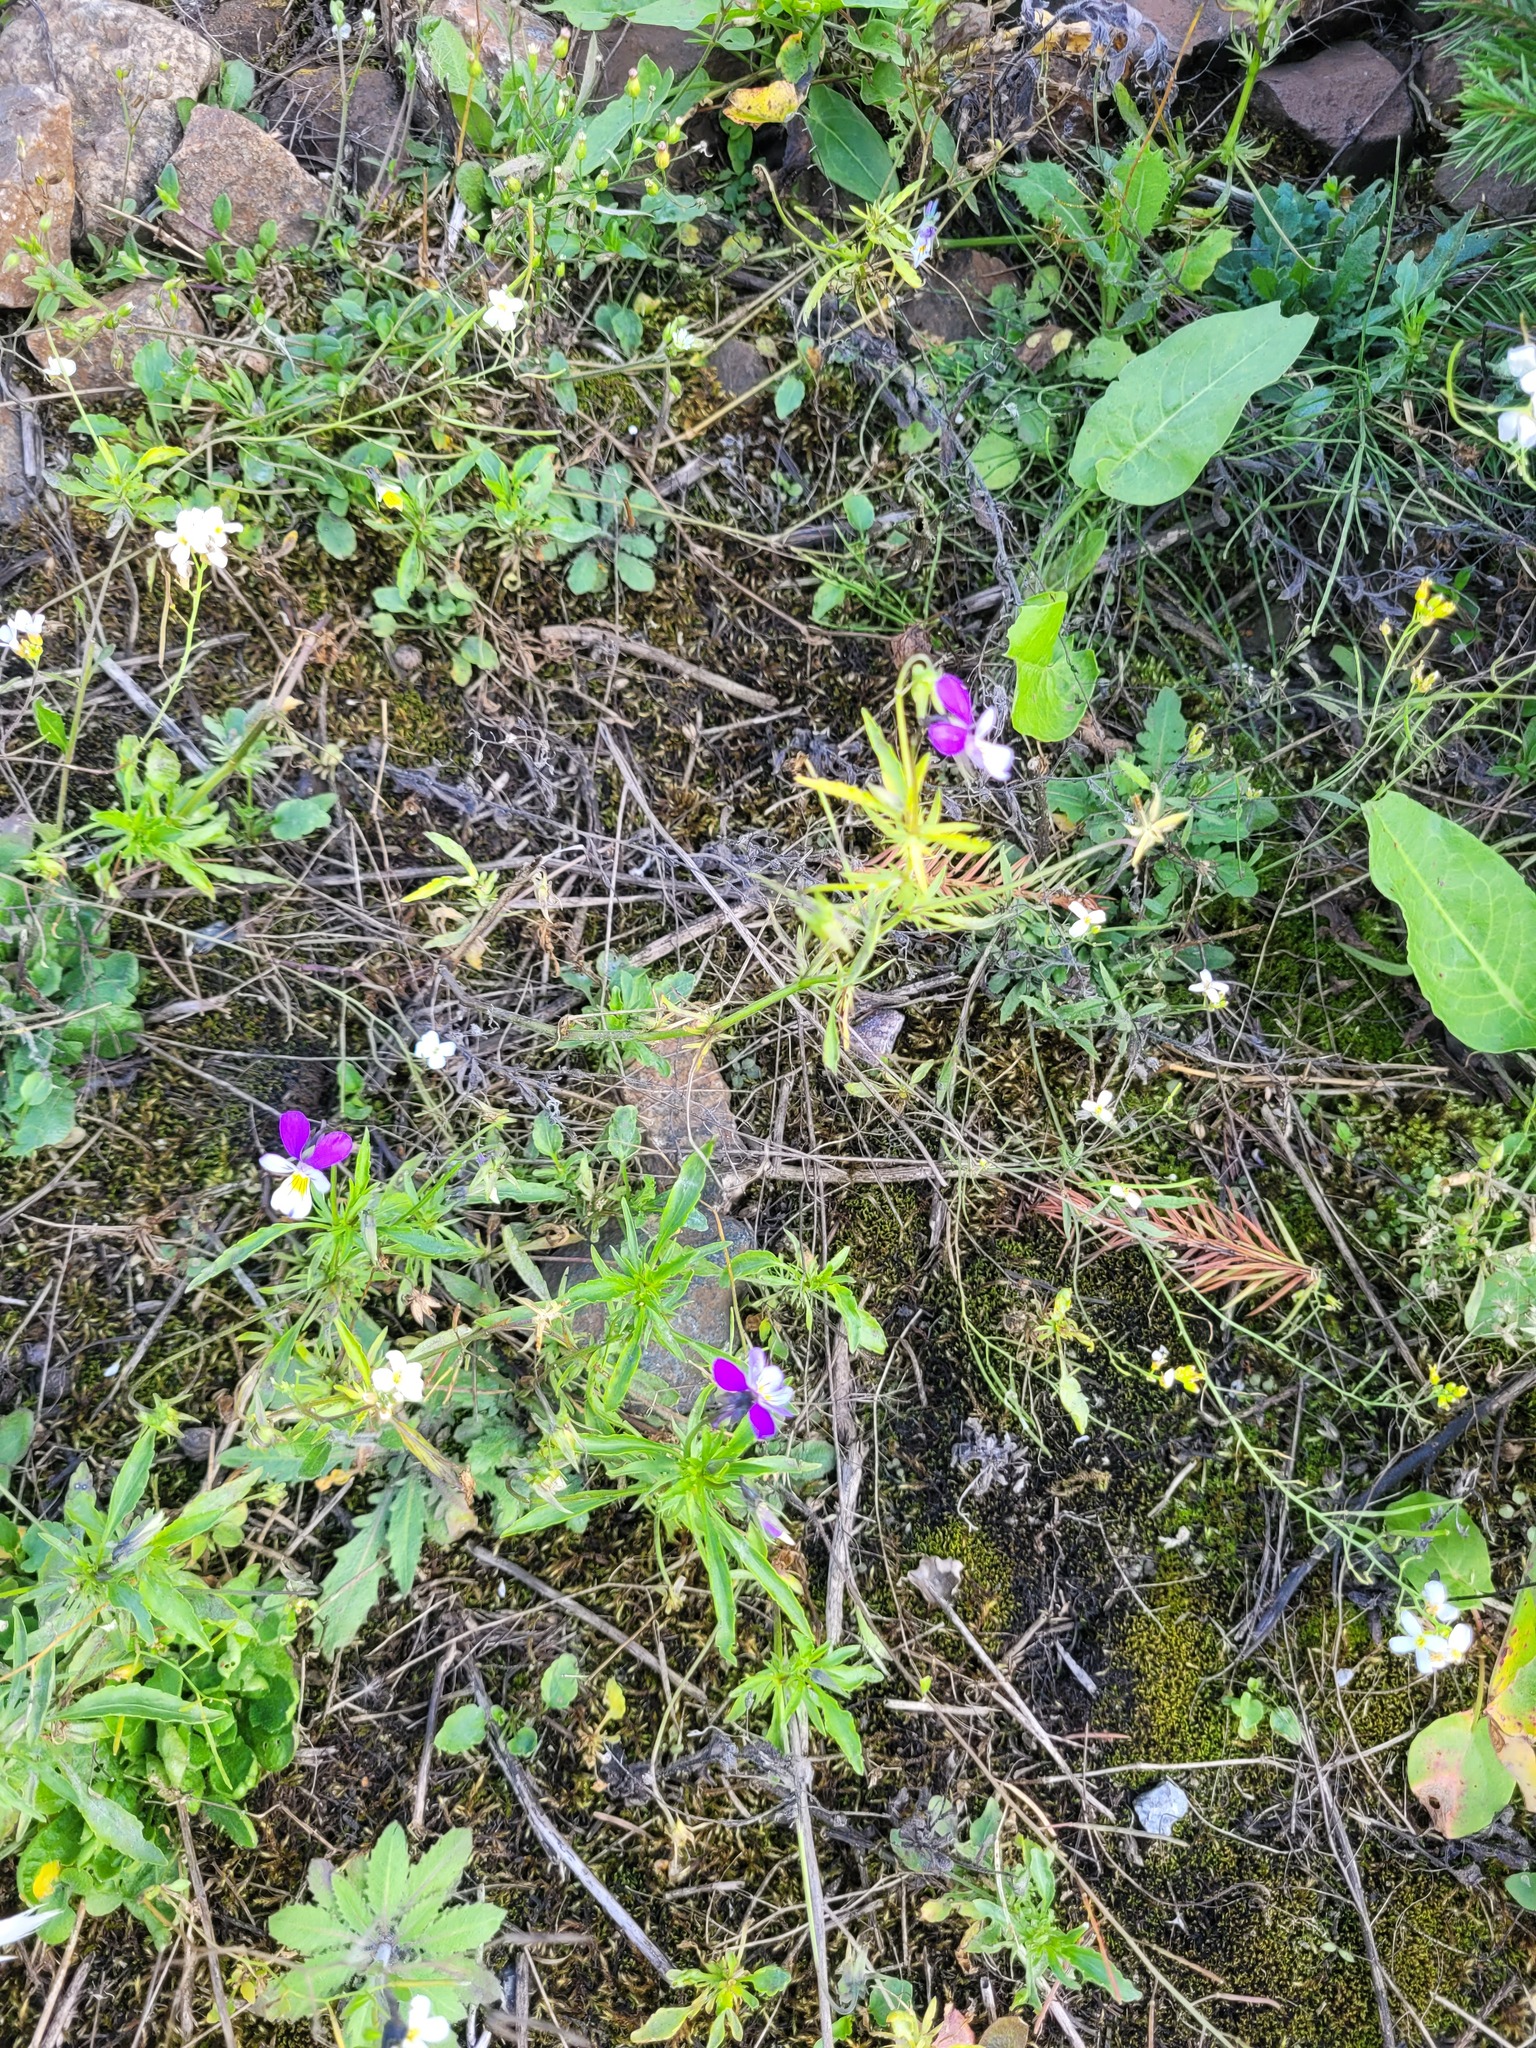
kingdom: Plantae
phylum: Tracheophyta
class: Magnoliopsida
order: Malpighiales
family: Violaceae
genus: Viola
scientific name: Viola tricolor
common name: Pansy
